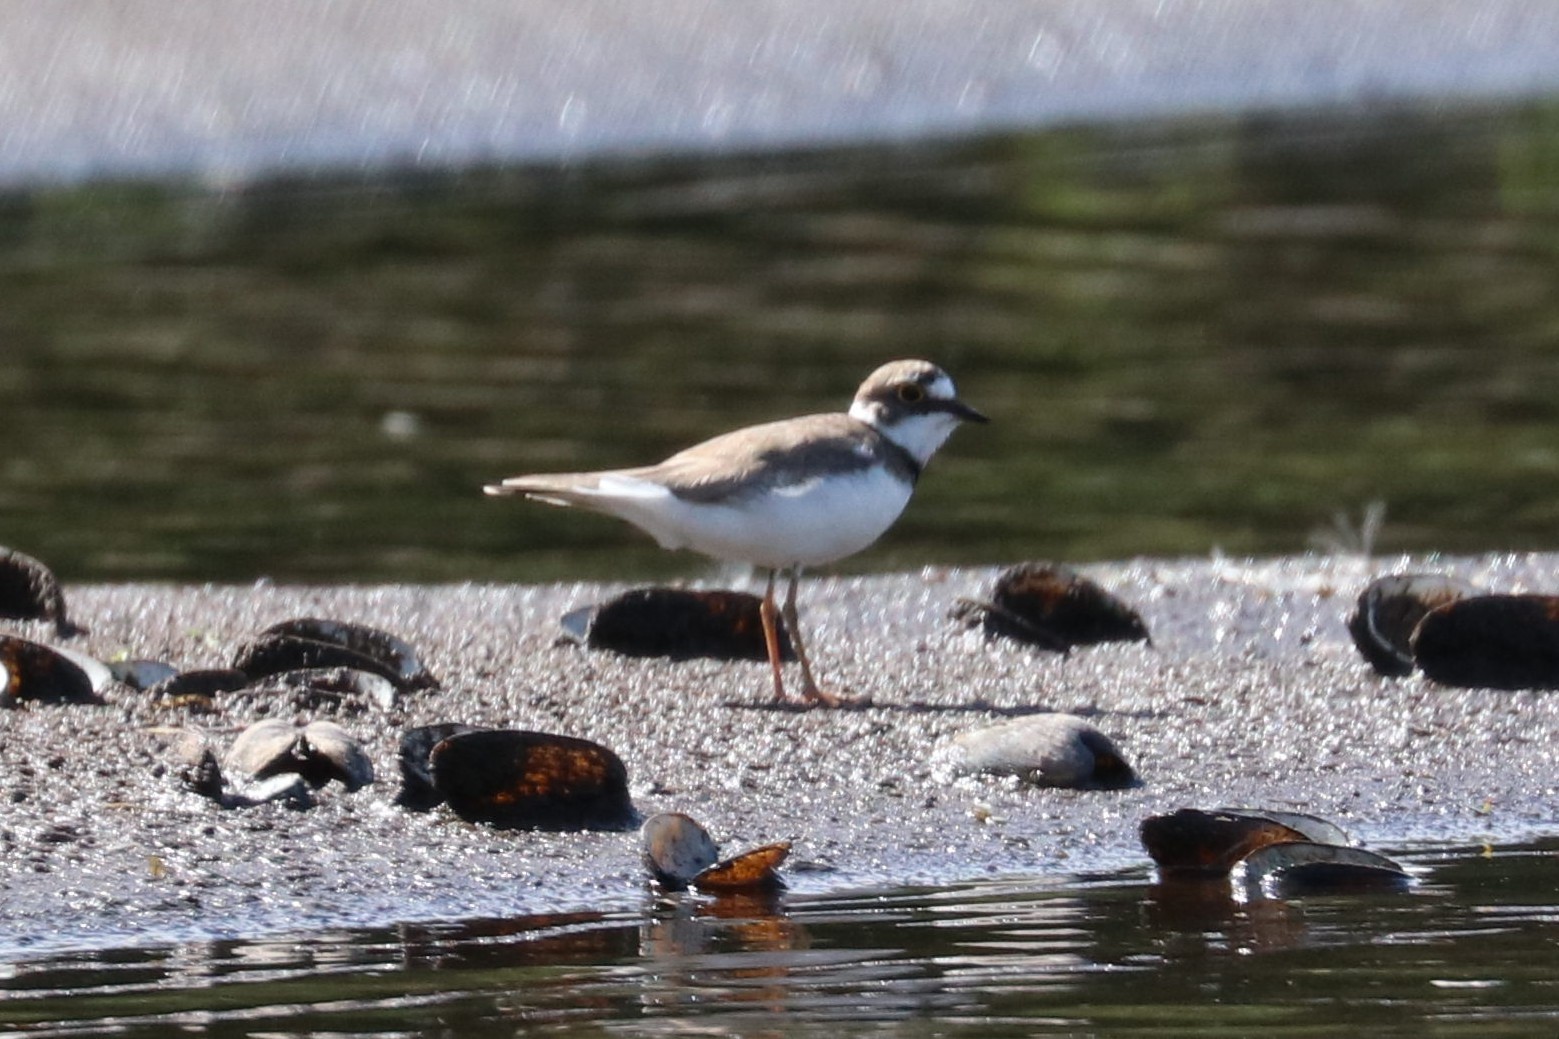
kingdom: Animalia
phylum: Chordata
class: Aves
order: Charadriiformes
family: Charadriidae
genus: Charadrius
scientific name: Charadrius dubius
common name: Little ringed plover
